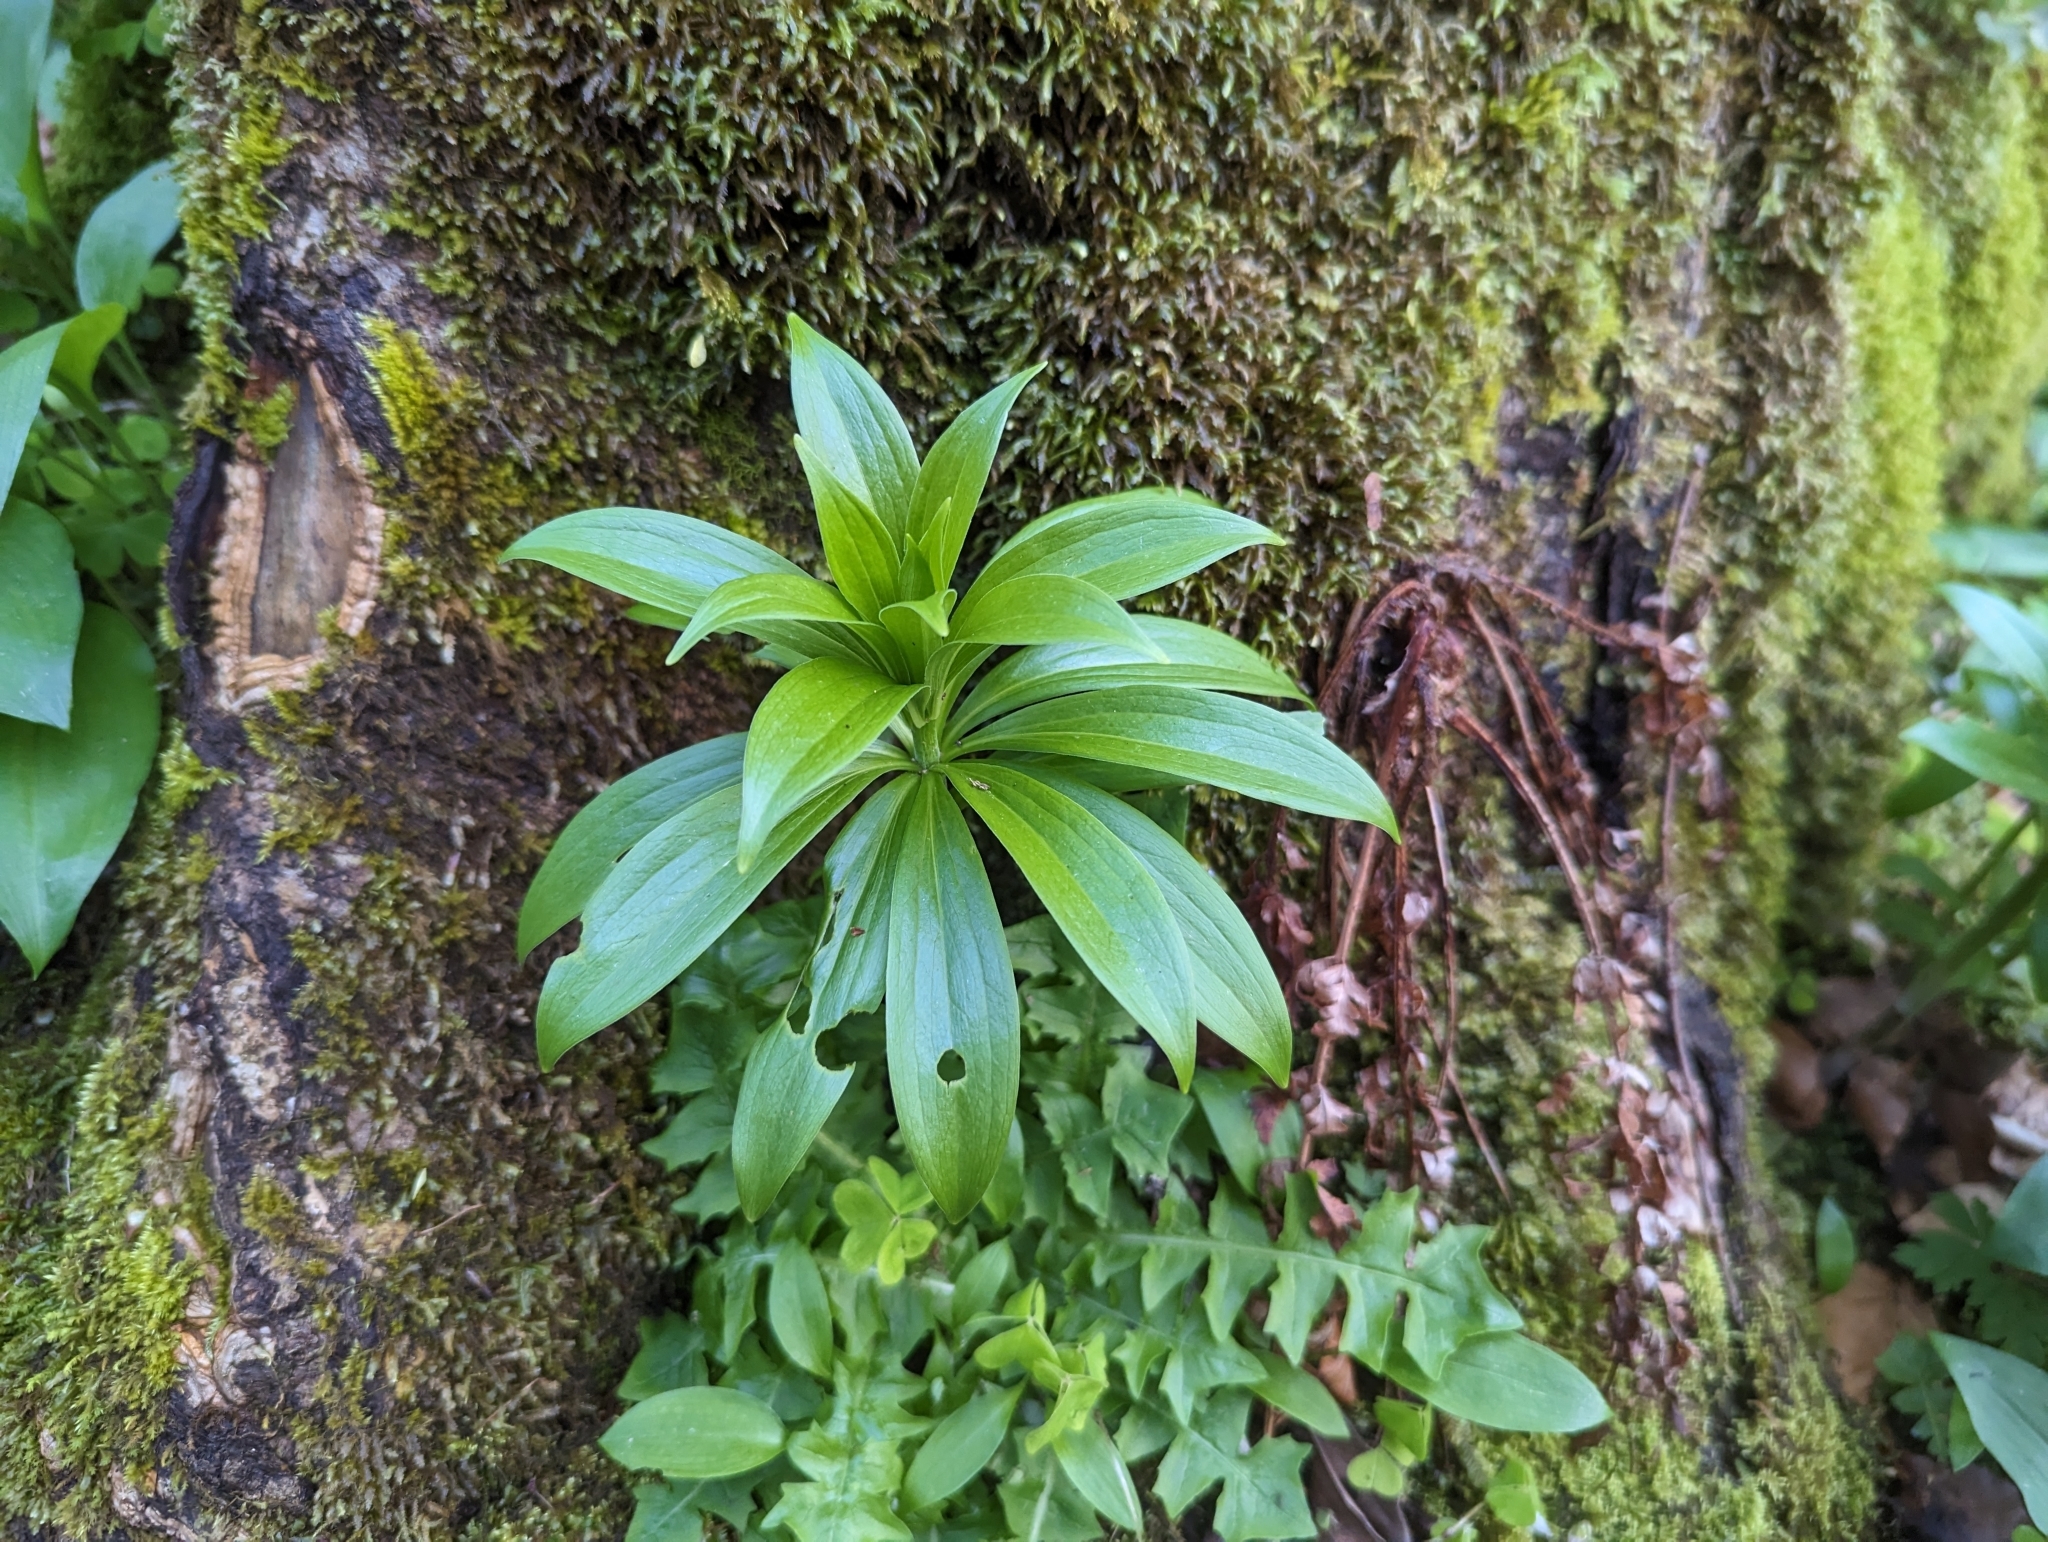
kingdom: Plantae
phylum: Tracheophyta
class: Liliopsida
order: Liliales
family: Liliaceae
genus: Lilium
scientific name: Lilium martagon
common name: Martagon lily
